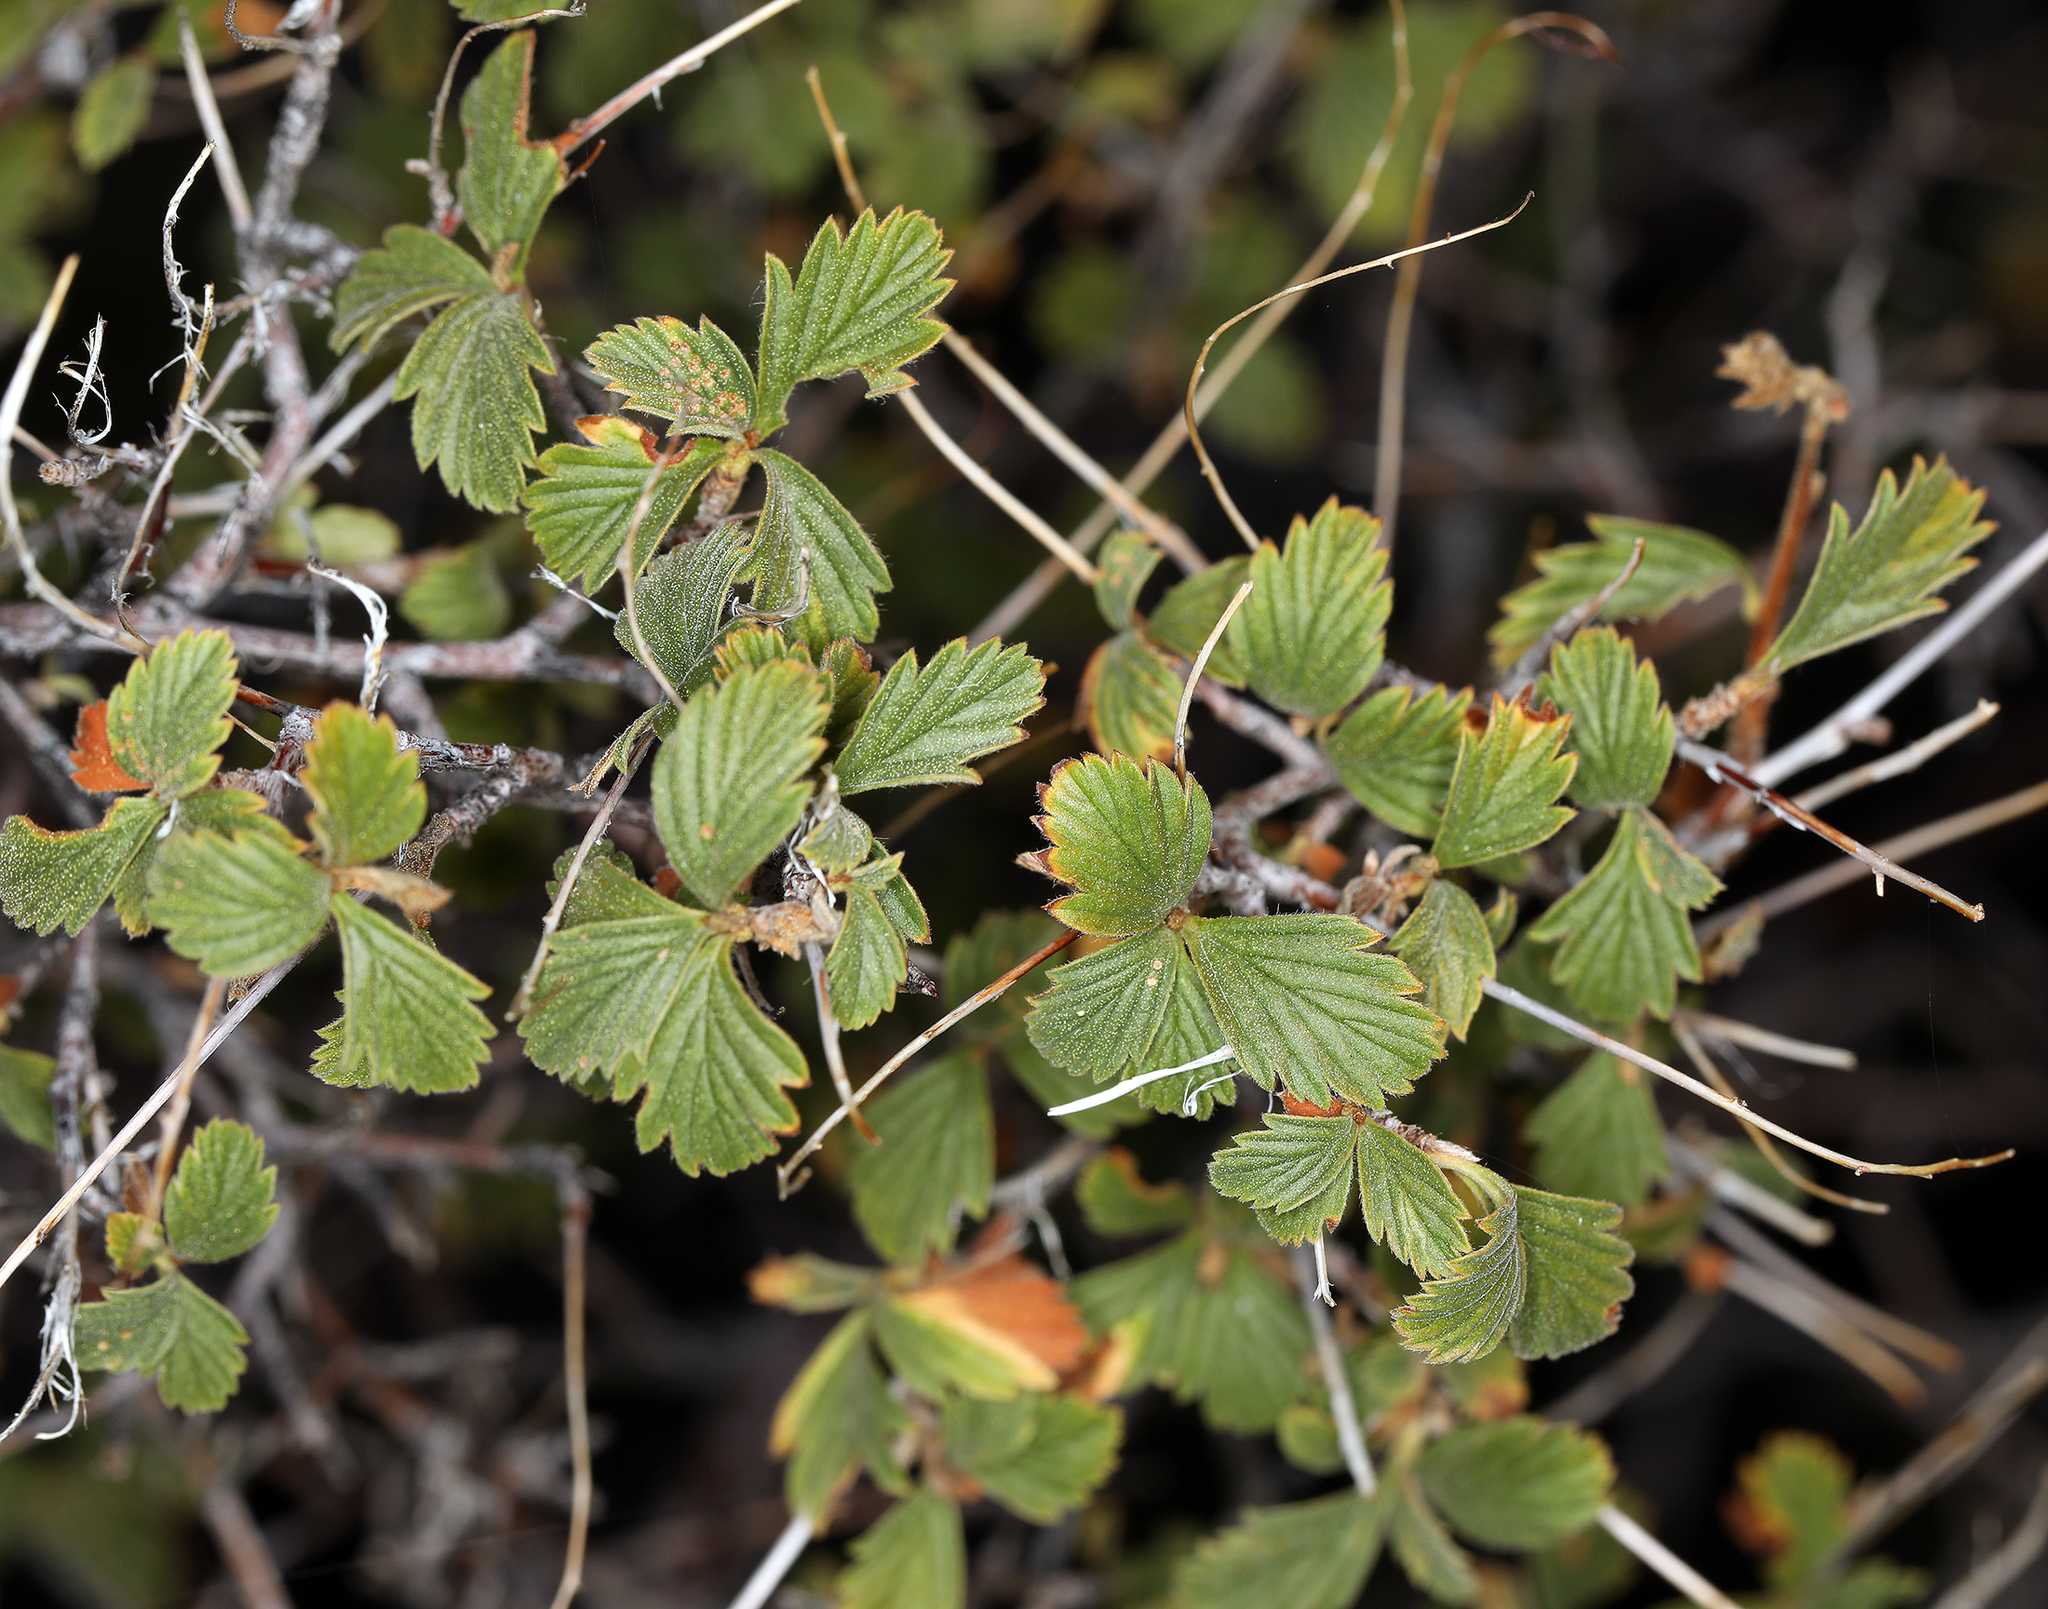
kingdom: Plantae
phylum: Tracheophyta
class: Magnoliopsida
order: Rosales
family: Rosaceae
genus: Holodiscus
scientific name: Holodiscus discolor
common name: Oceanspray
